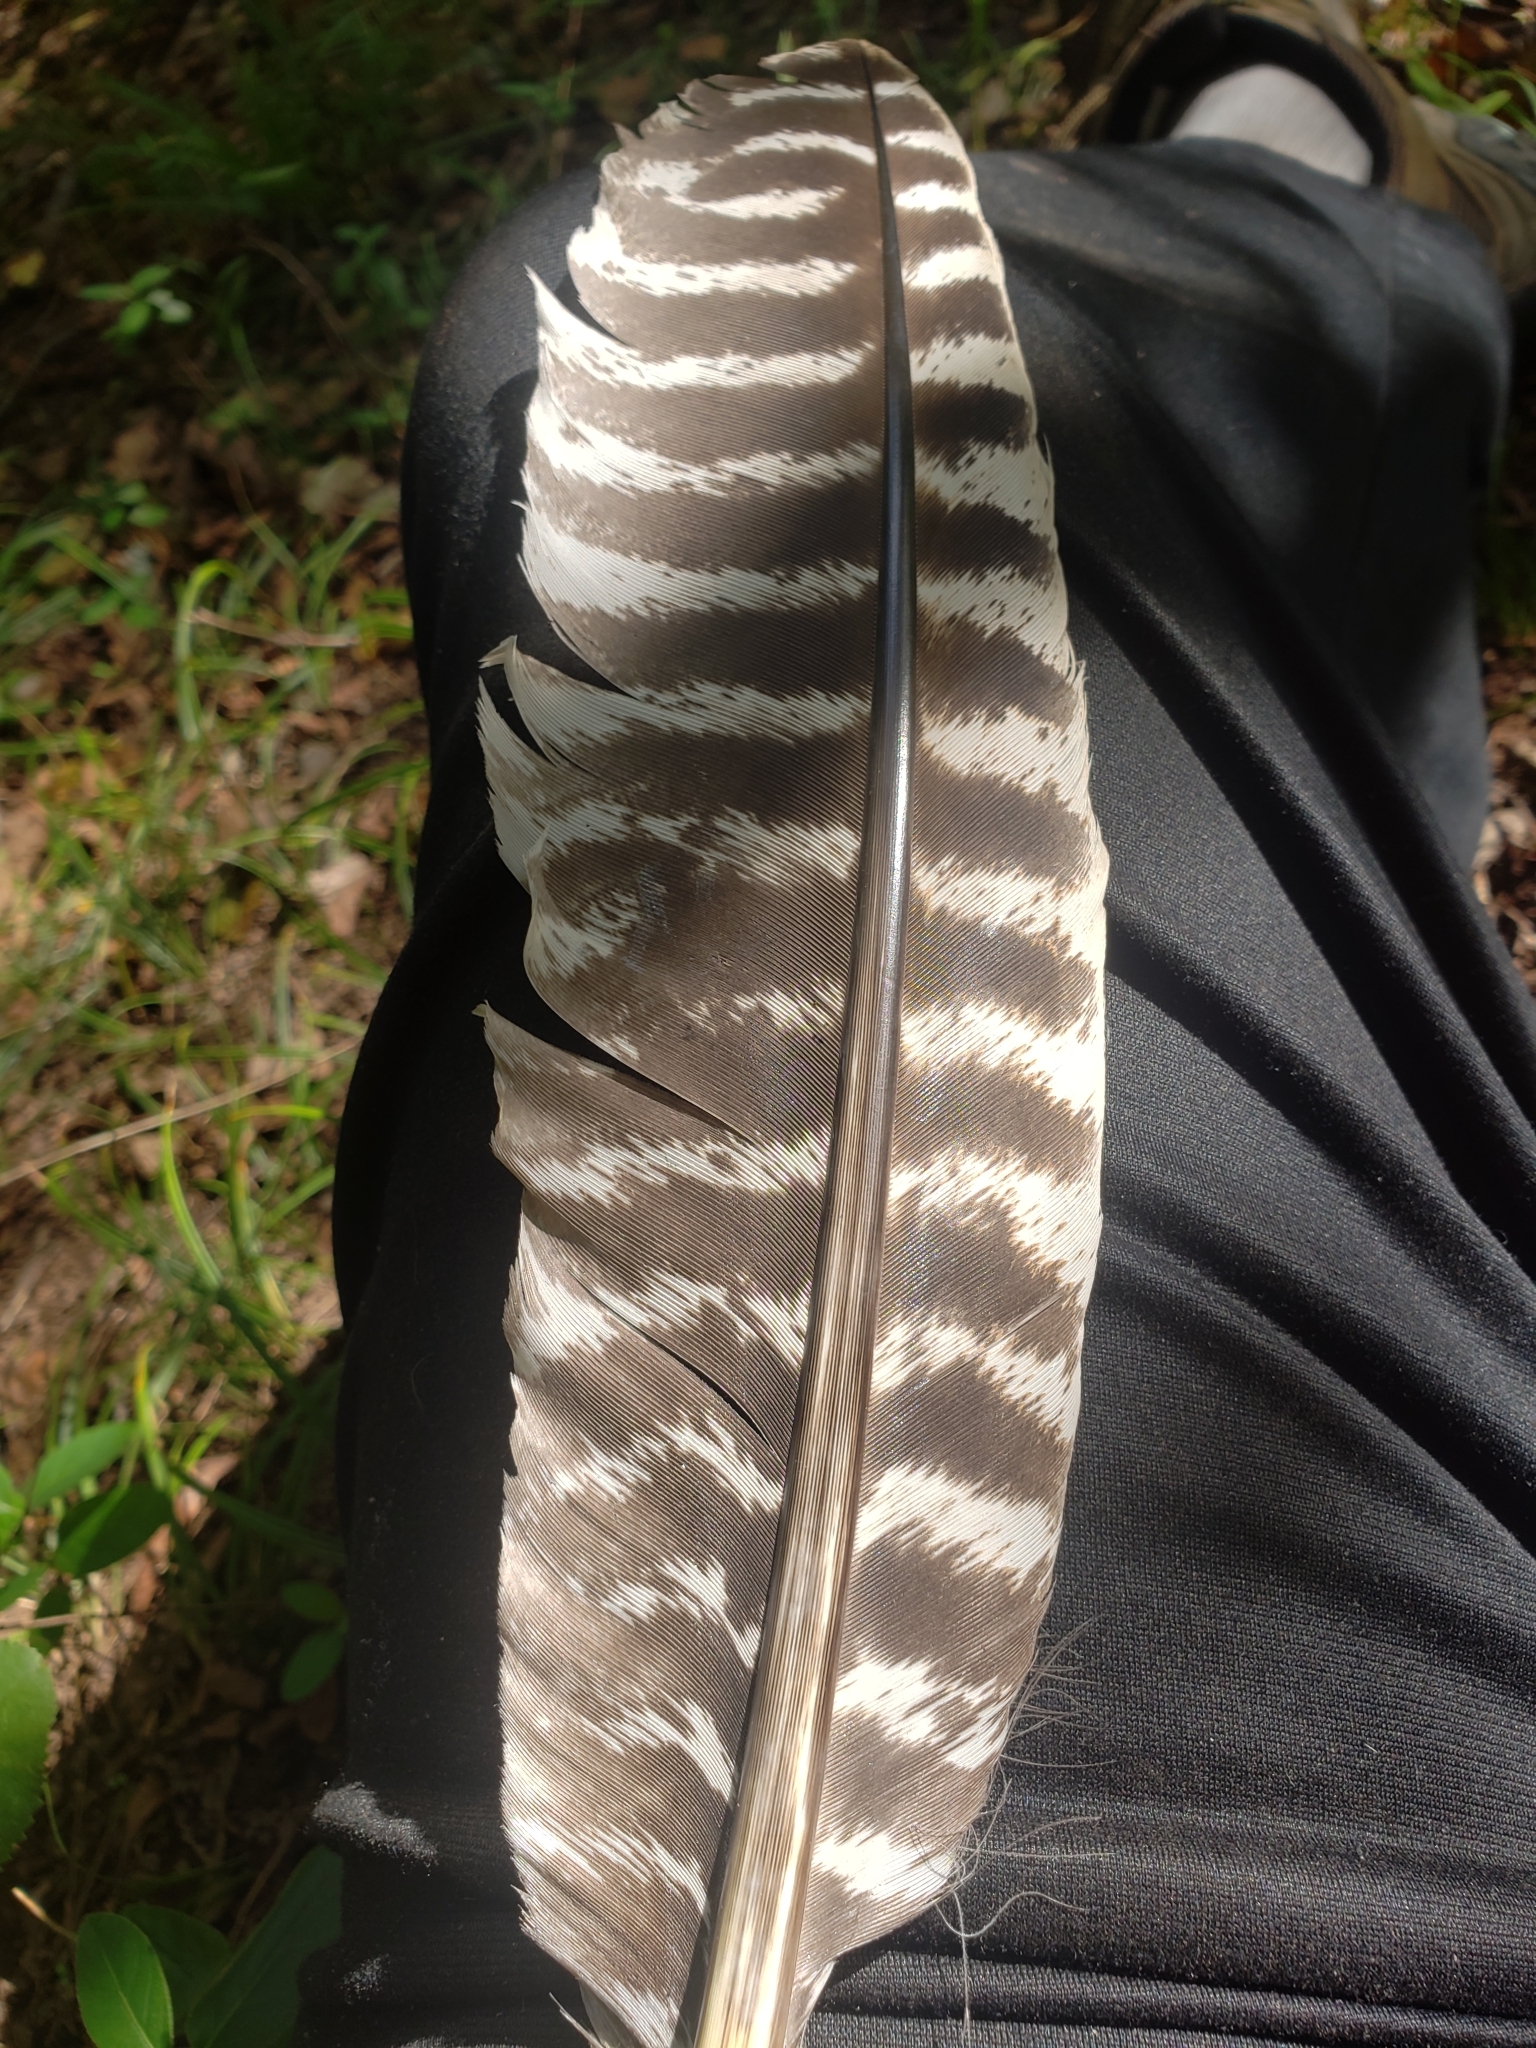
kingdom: Animalia
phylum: Chordata
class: Aves
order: Galliformes
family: Phasianidae
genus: Meleagris
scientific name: Meleagris gallopavo
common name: Wild turkey
